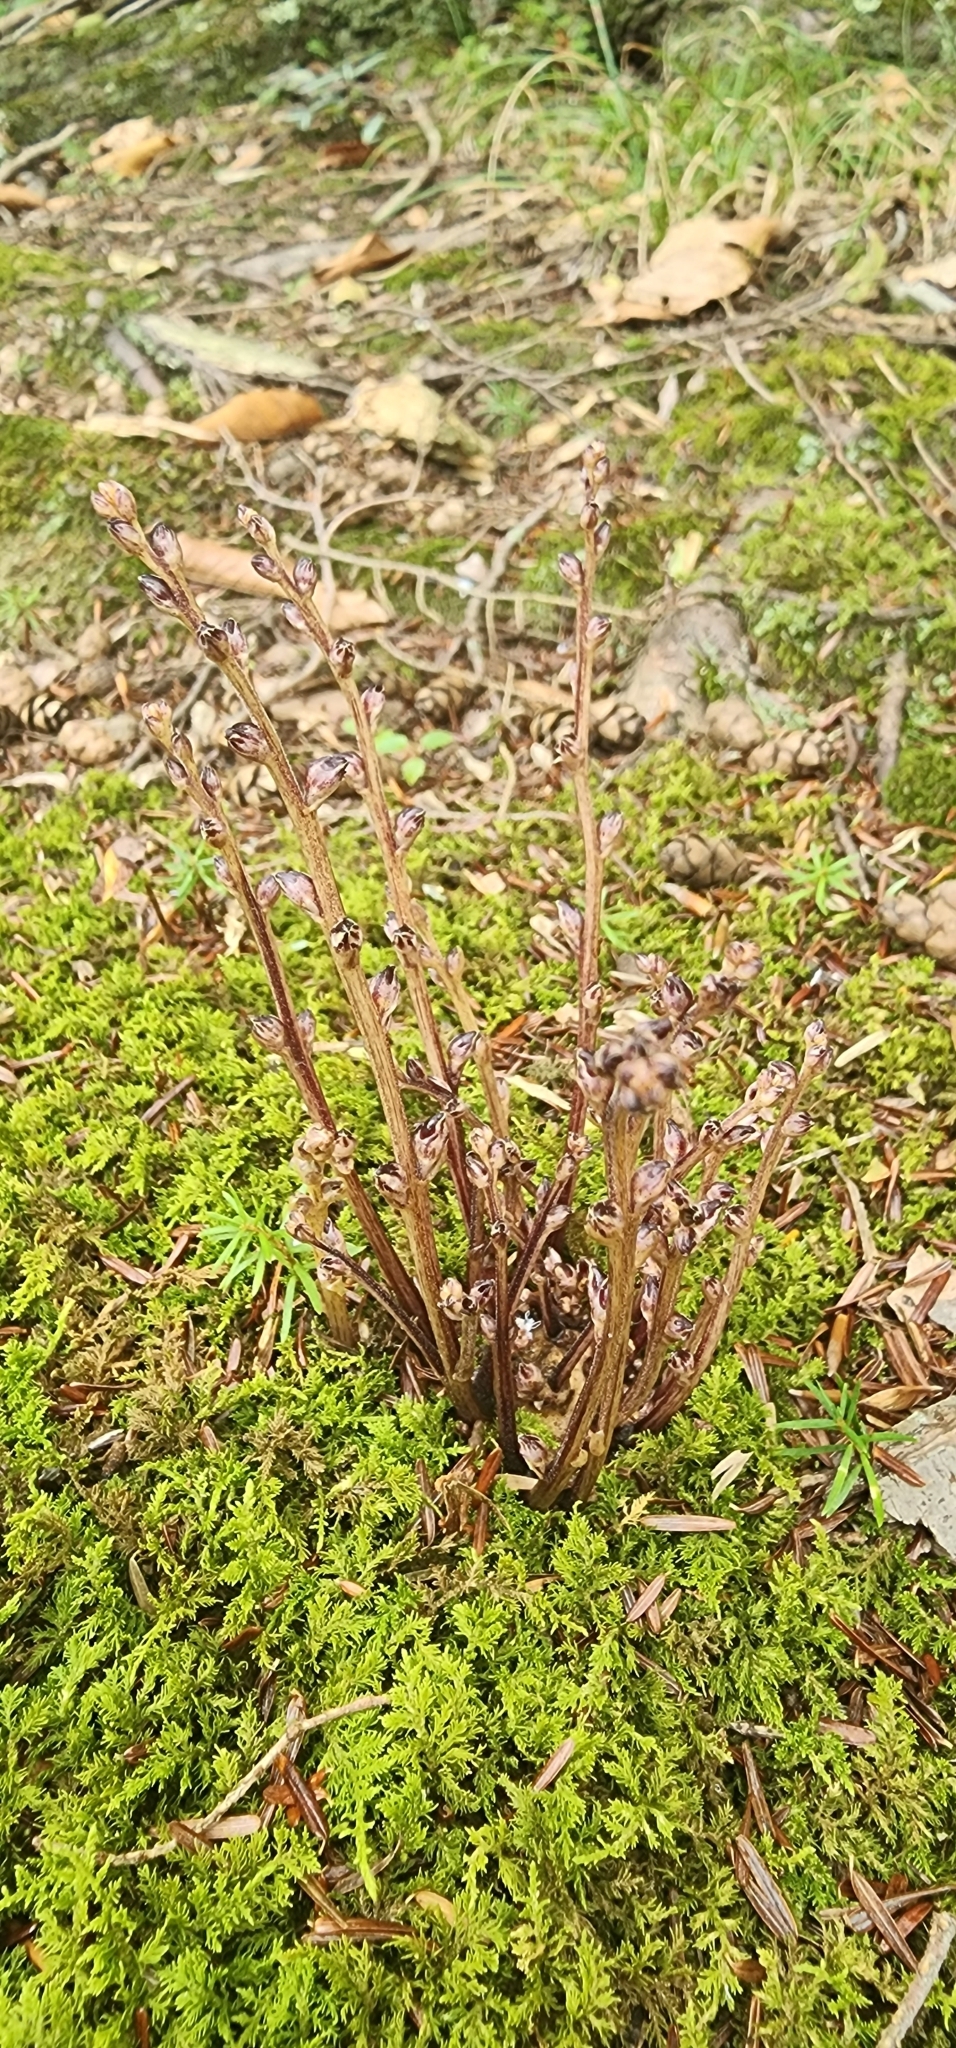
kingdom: Plantae
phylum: Tracheophyta
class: Magnoliopsida
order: Lamiales
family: Orobanchaceae
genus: Epifagus
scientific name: Epifagus virginiana
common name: Beechdrops
